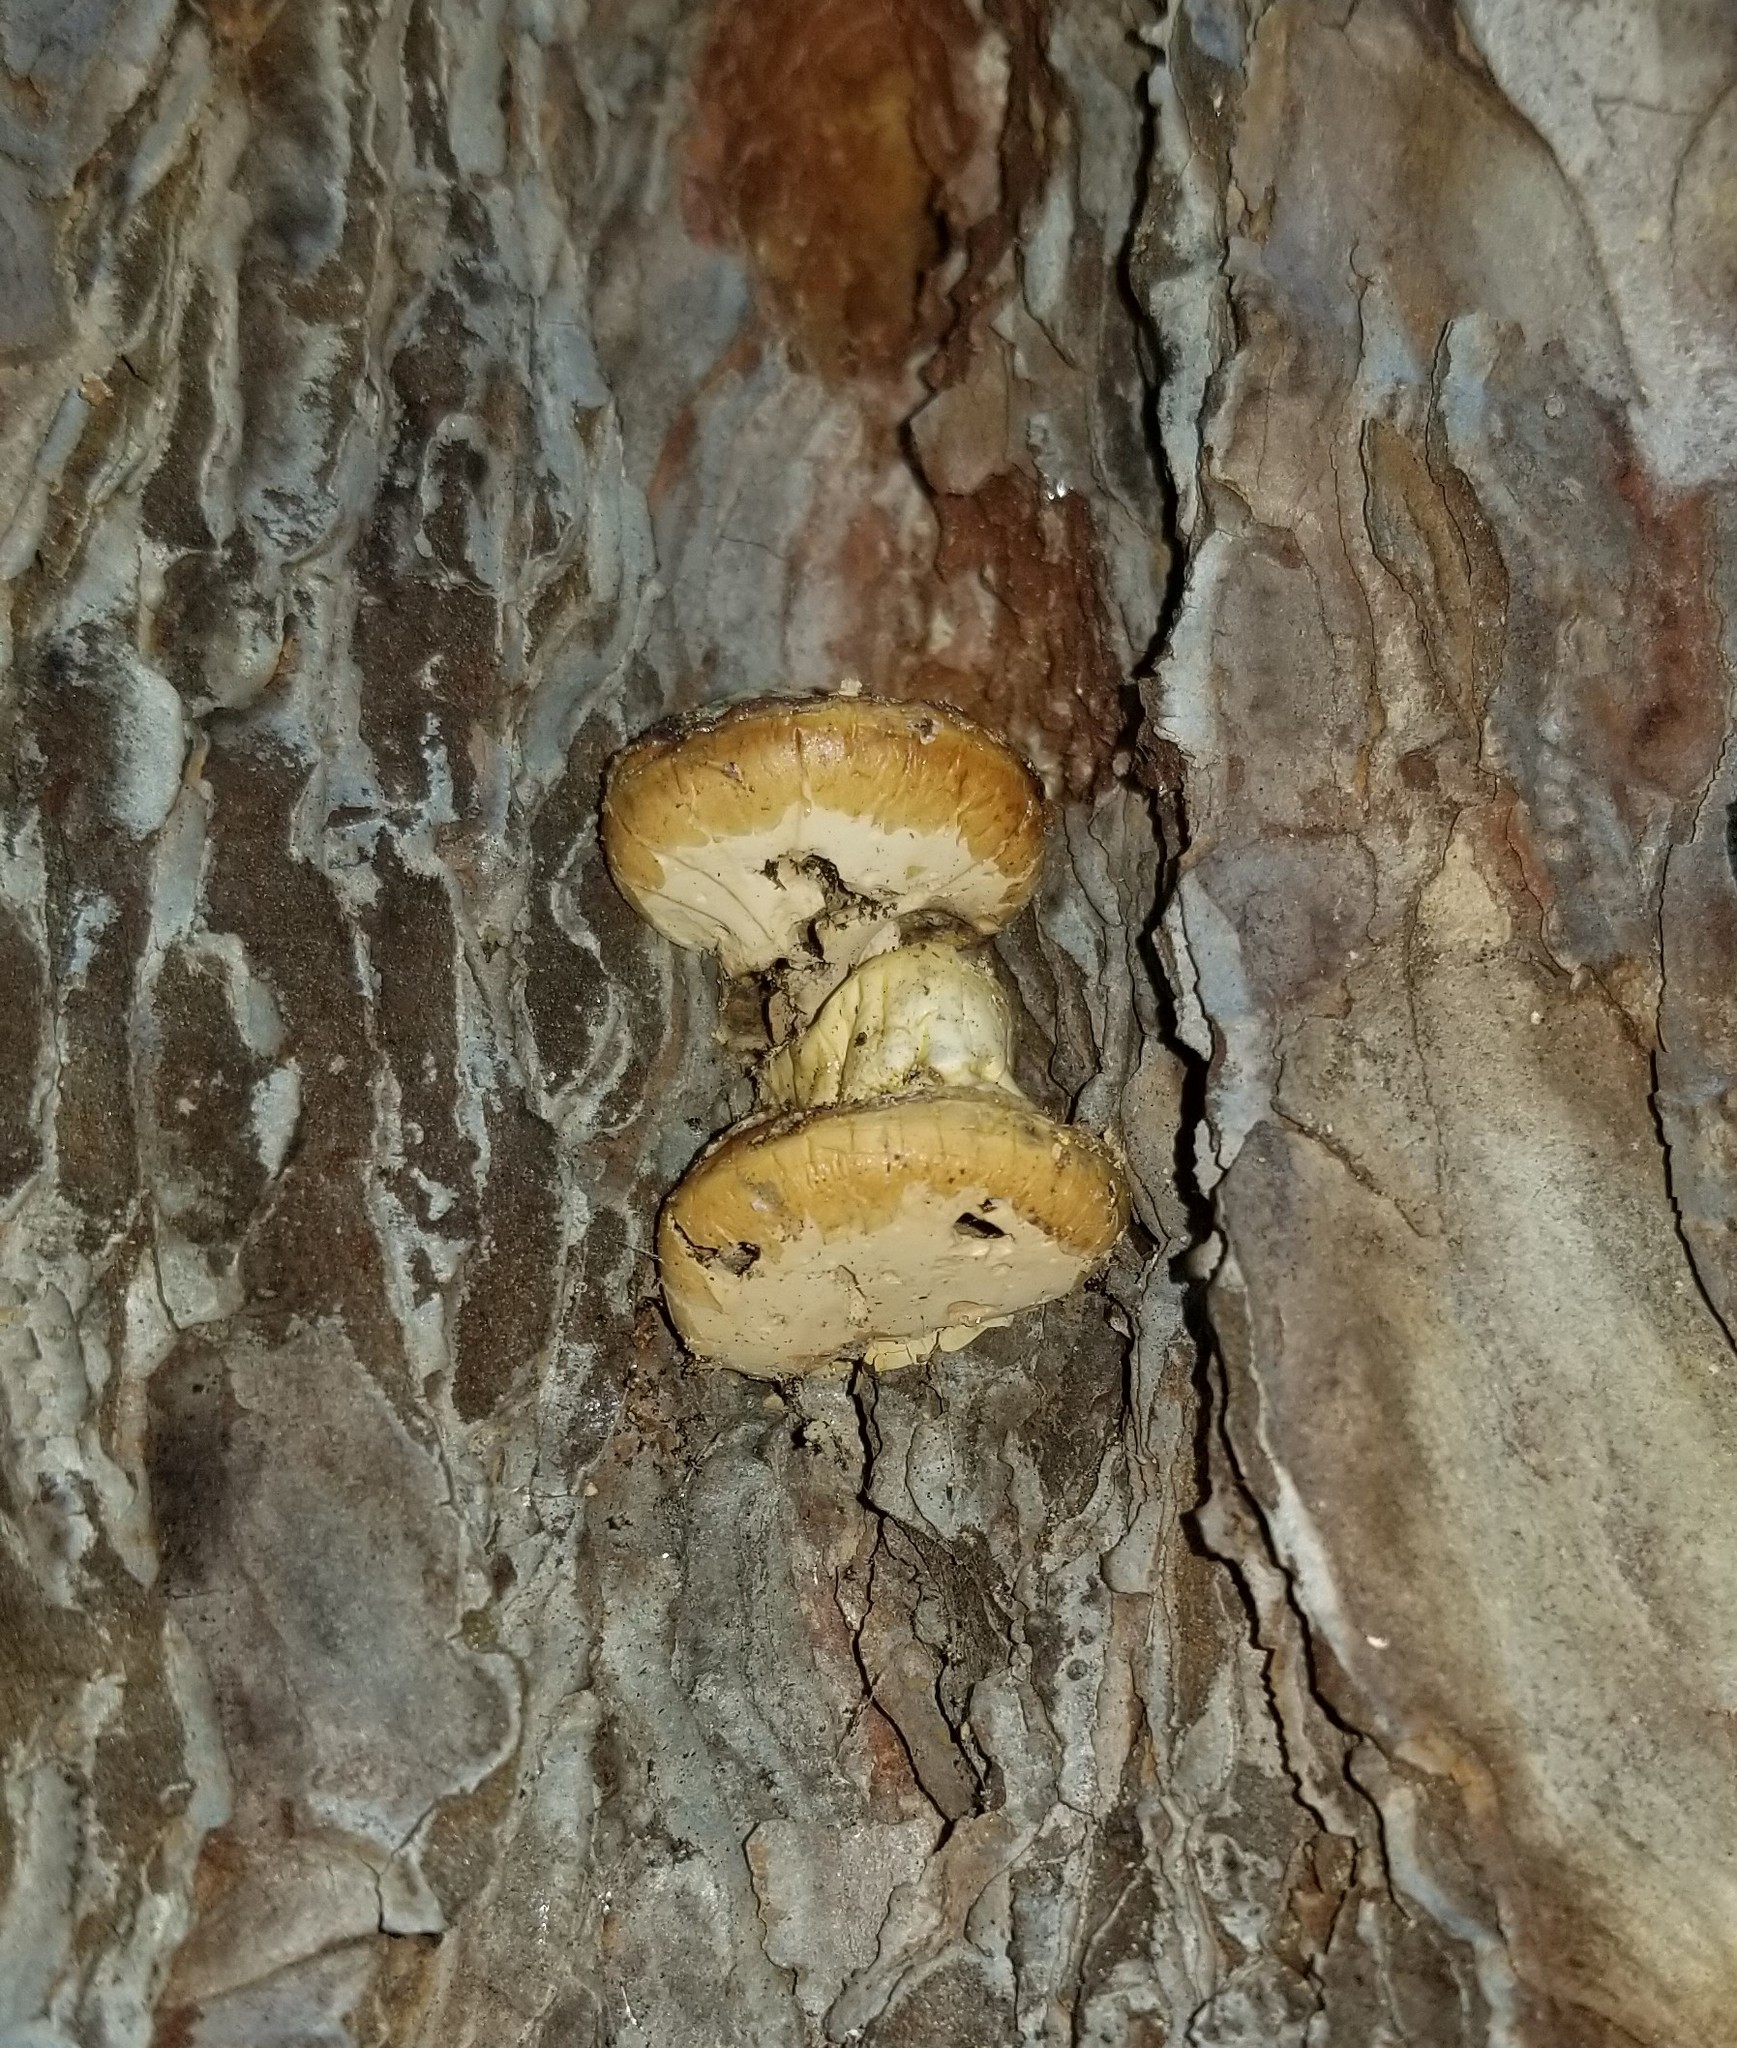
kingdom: Fungi
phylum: Basidiomycota
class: Agaricomycetes
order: Polyporales
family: Polyporaceae
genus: Cryptoporus
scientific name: Cryptoporus volvatus
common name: Veiled polypore
